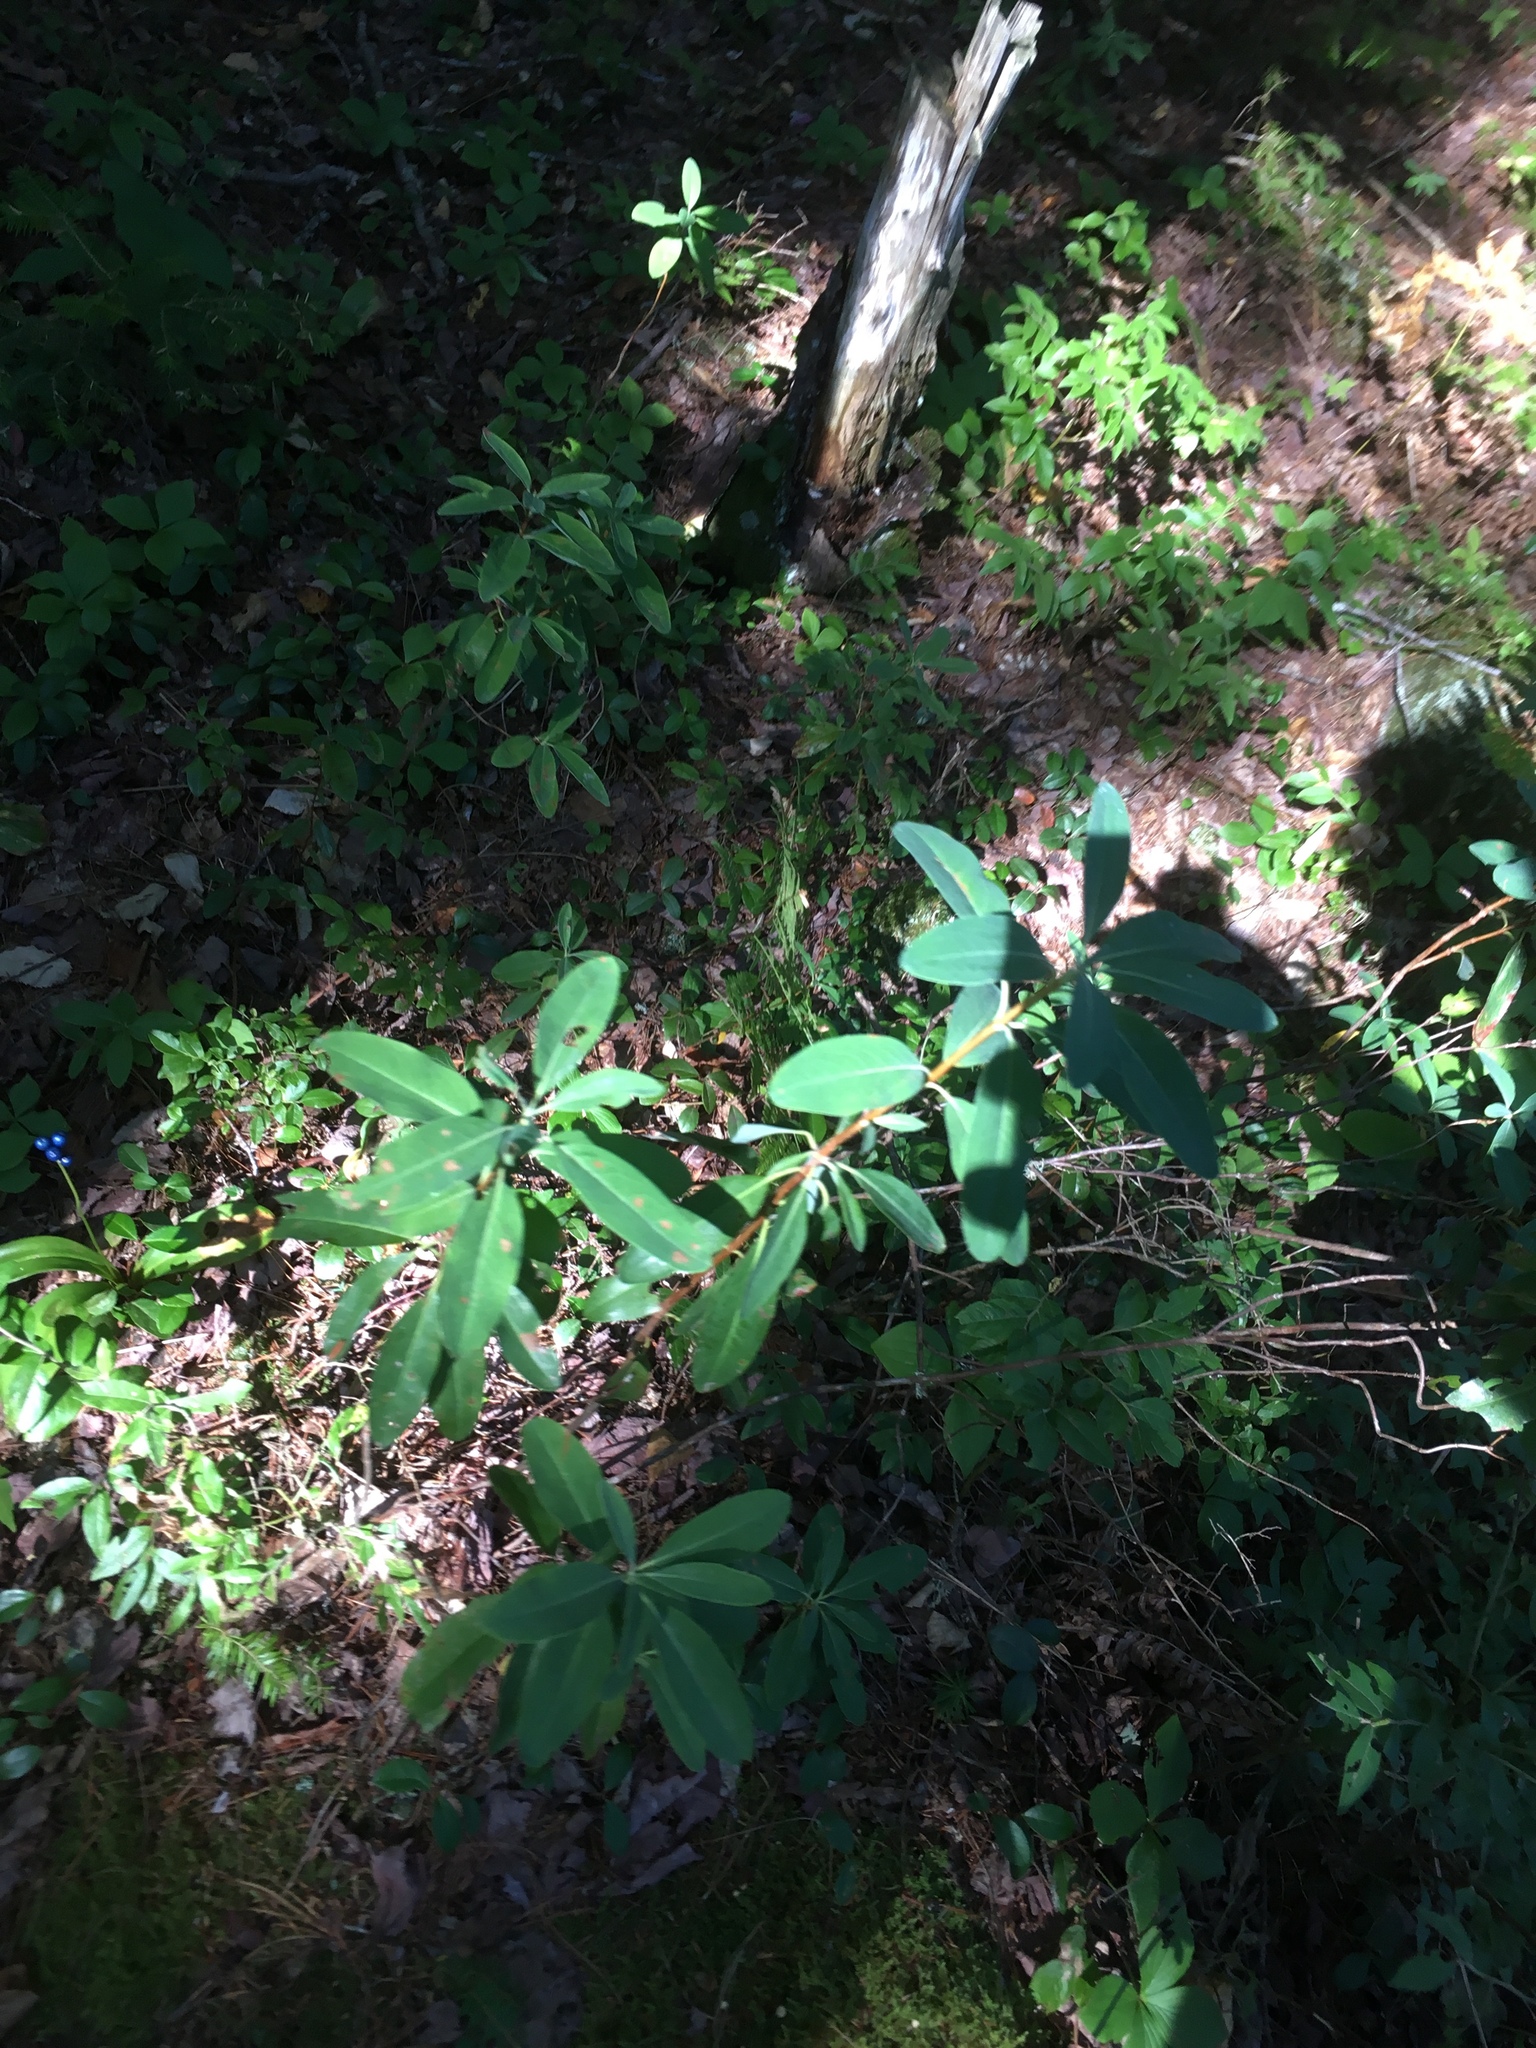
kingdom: Plantae
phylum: Tracheophyta
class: Magnoliopsida
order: Ericales
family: Ericaceae
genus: Kalmia
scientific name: Kalmia angustifolia
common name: Sheep-laurel
